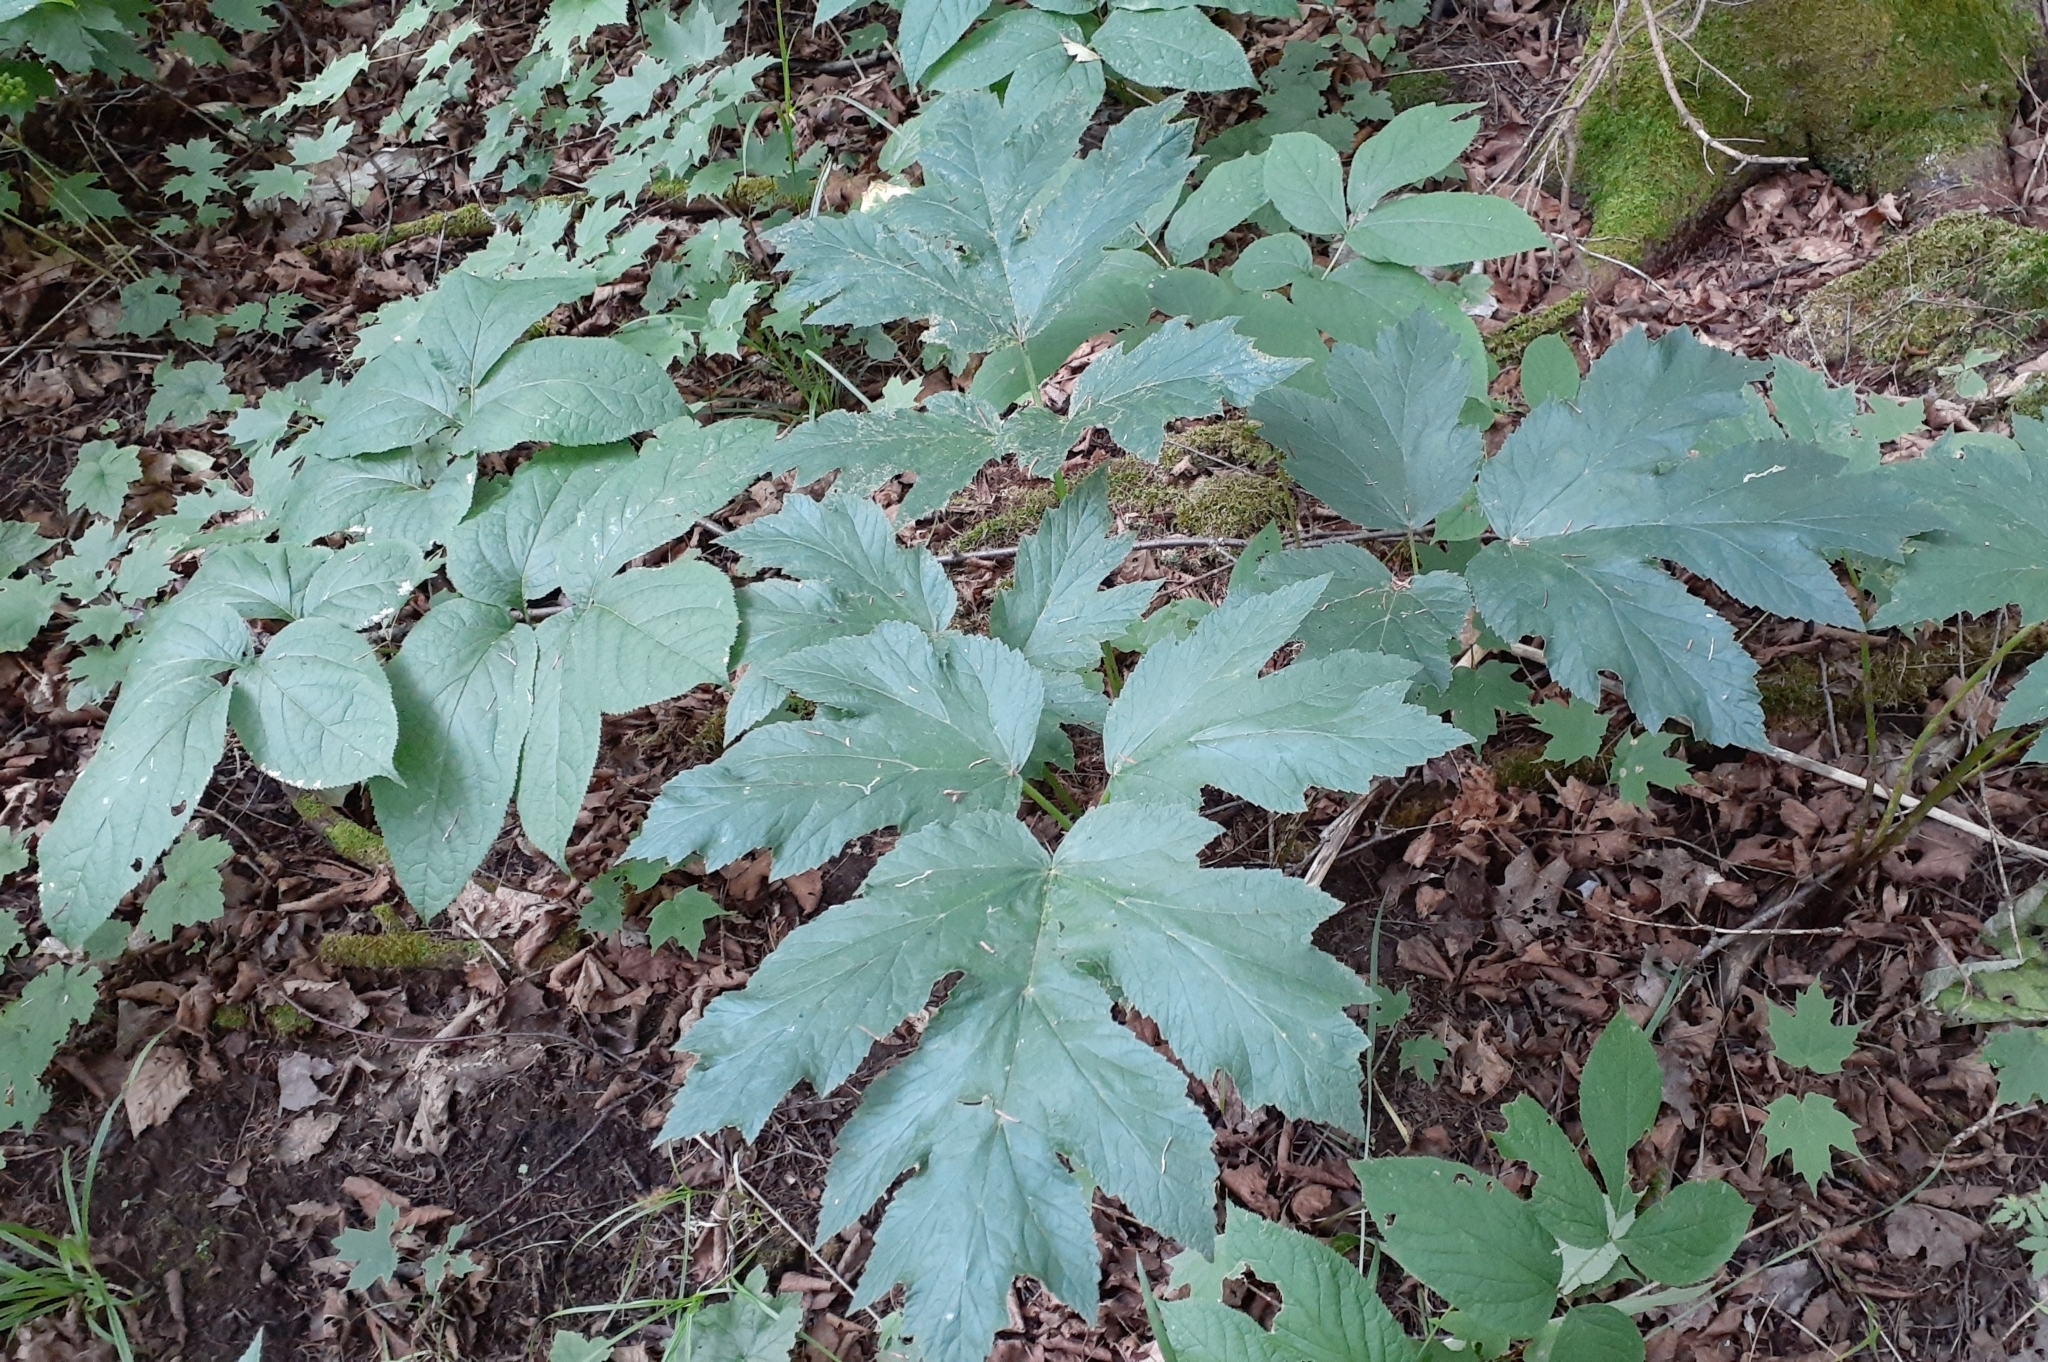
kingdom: Plantae
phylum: Tracheophyta
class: Magnoliopsida
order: Apiales
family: Apiaceae
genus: Heracleum
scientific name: Heracleum maximum
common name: American cow parsnip
